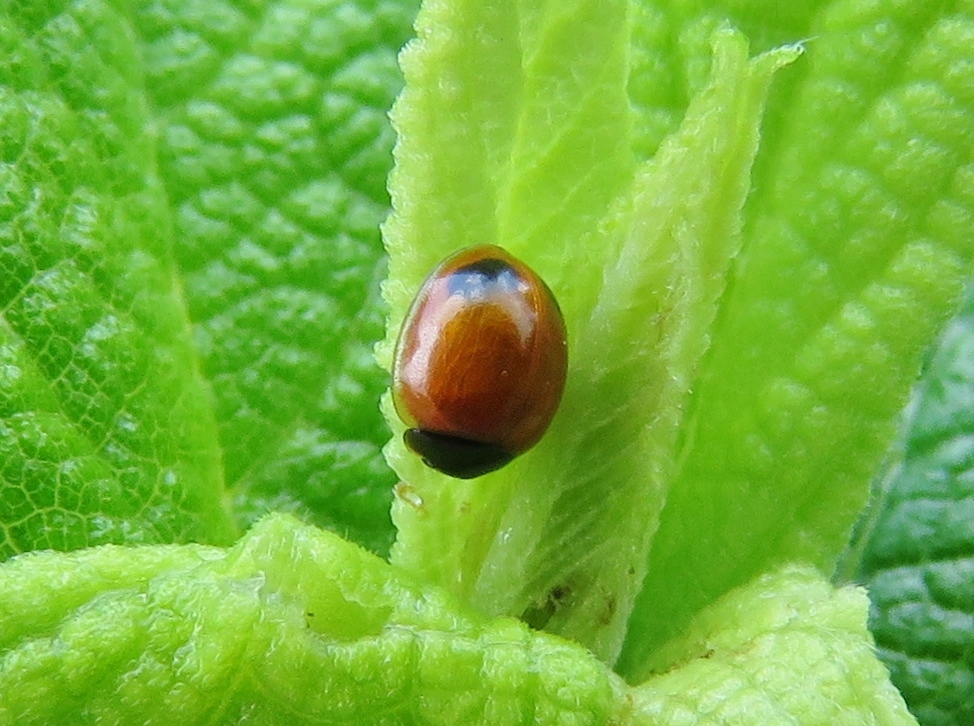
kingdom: Animalia
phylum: Arthropoda
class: Insecta
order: Coleoptera
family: Coccinellidae
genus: Exochomus
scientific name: Exochomus childreni
